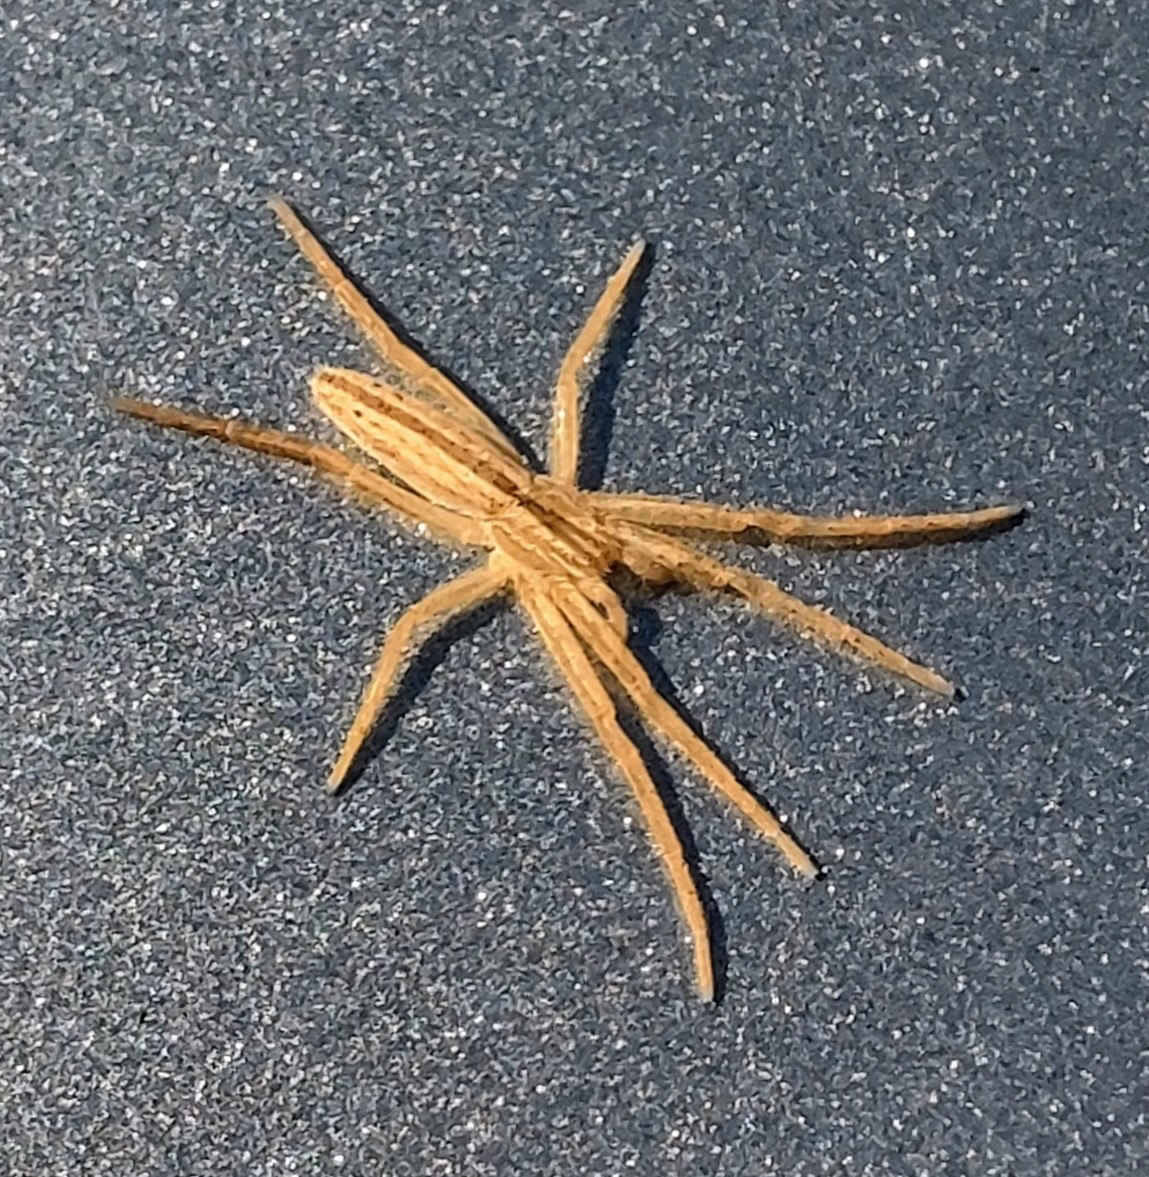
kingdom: Animalia
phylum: Arthropoda
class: Arachnida
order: Araneae
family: Philodromidae
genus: Tibellus
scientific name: Tibellus oblongus
